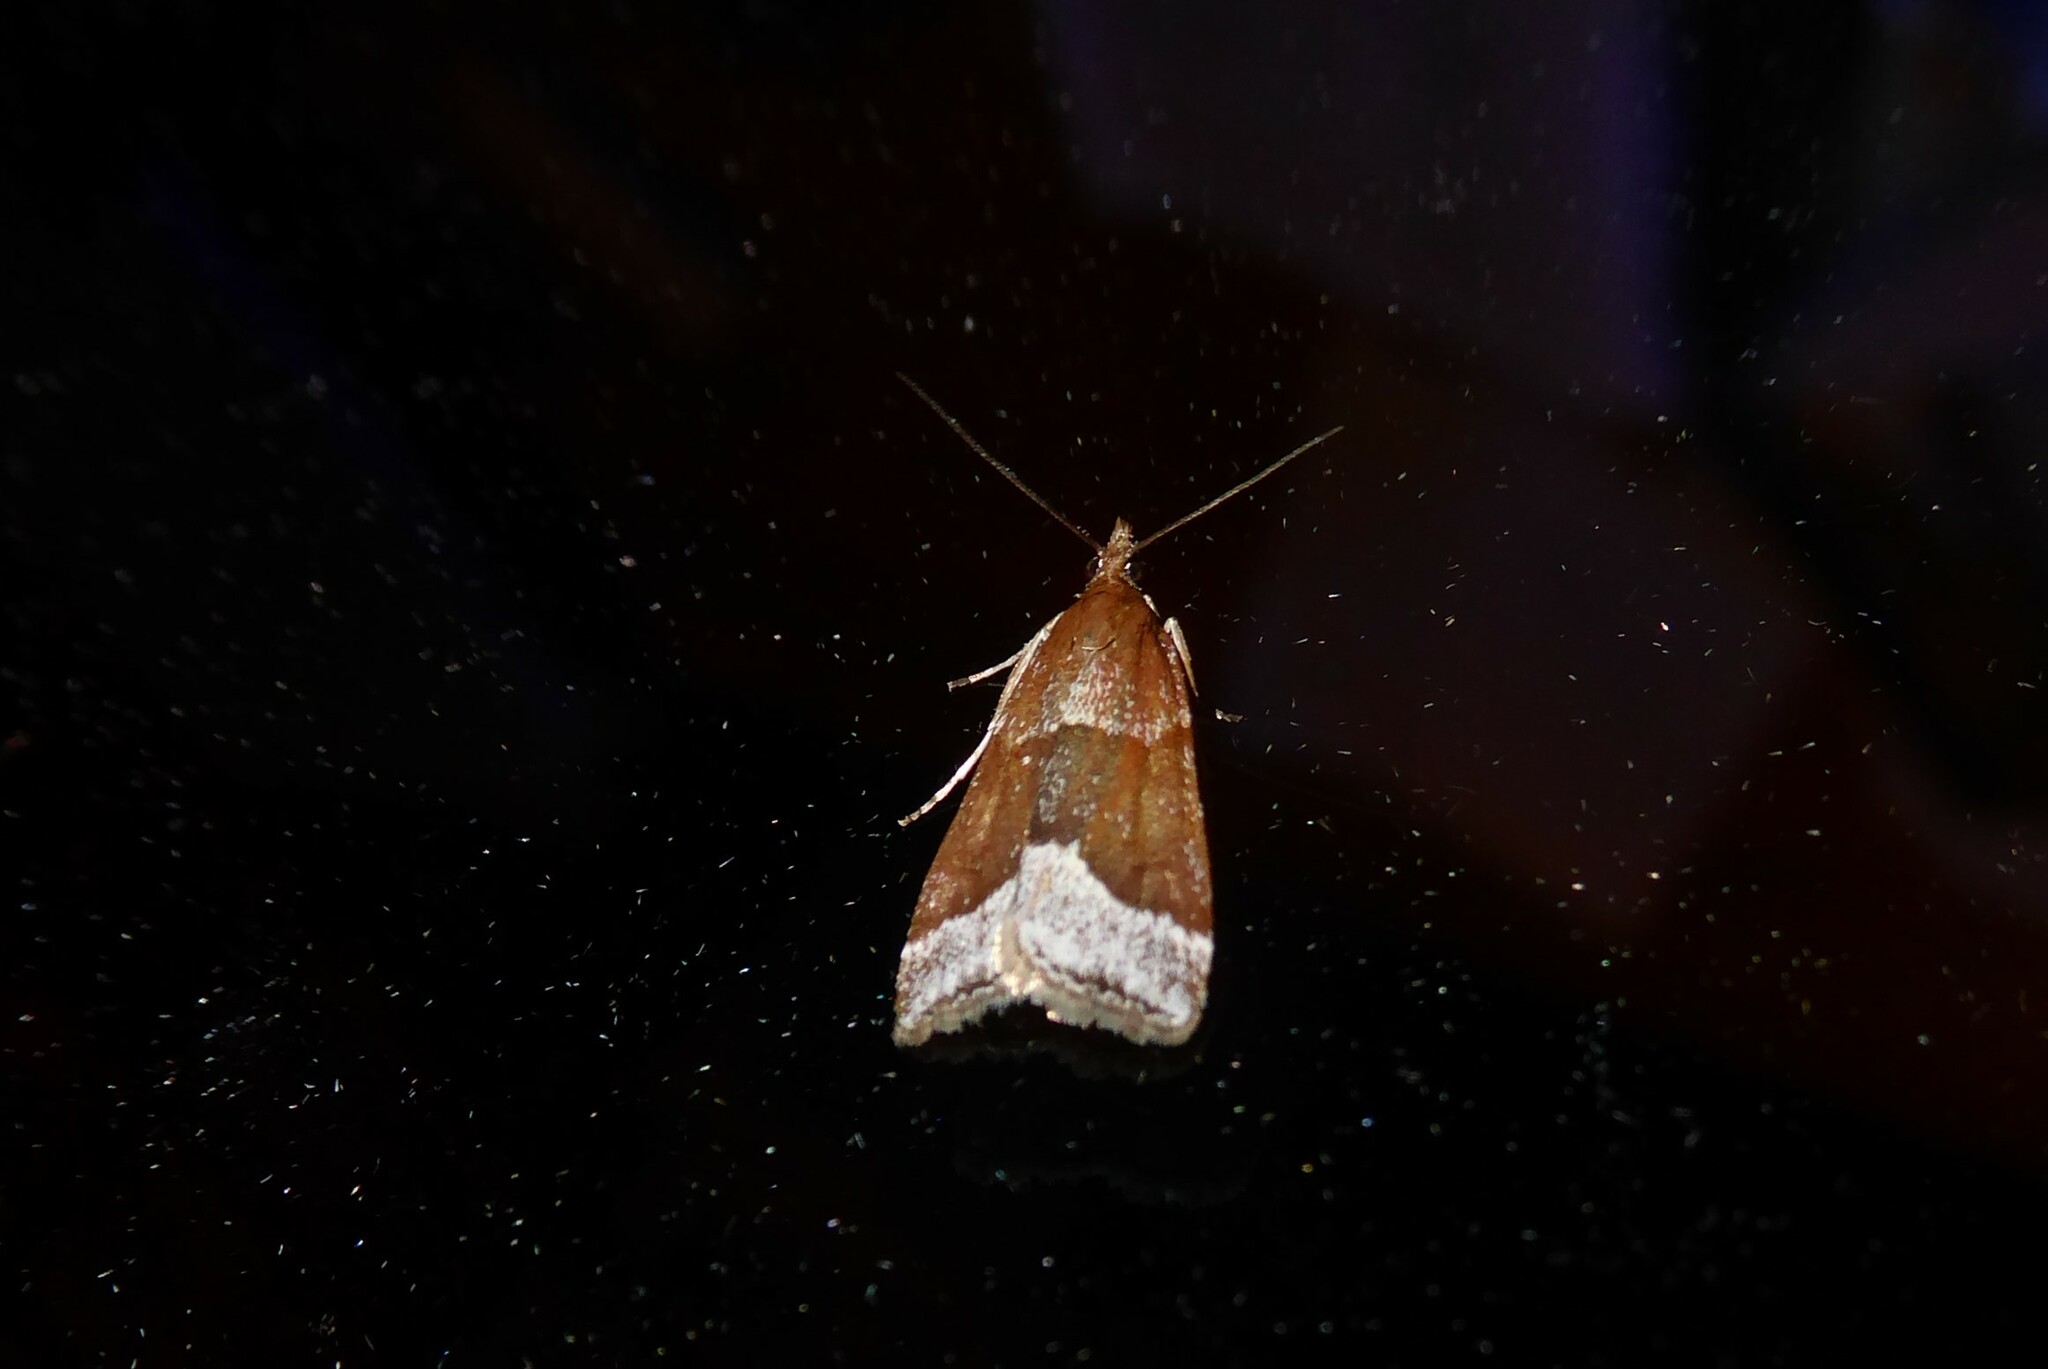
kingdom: Animalia
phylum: Arthropoda
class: Insecta
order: Lepidoptera
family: Crambidae
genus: Eudonia
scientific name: Eudonia feredayi
